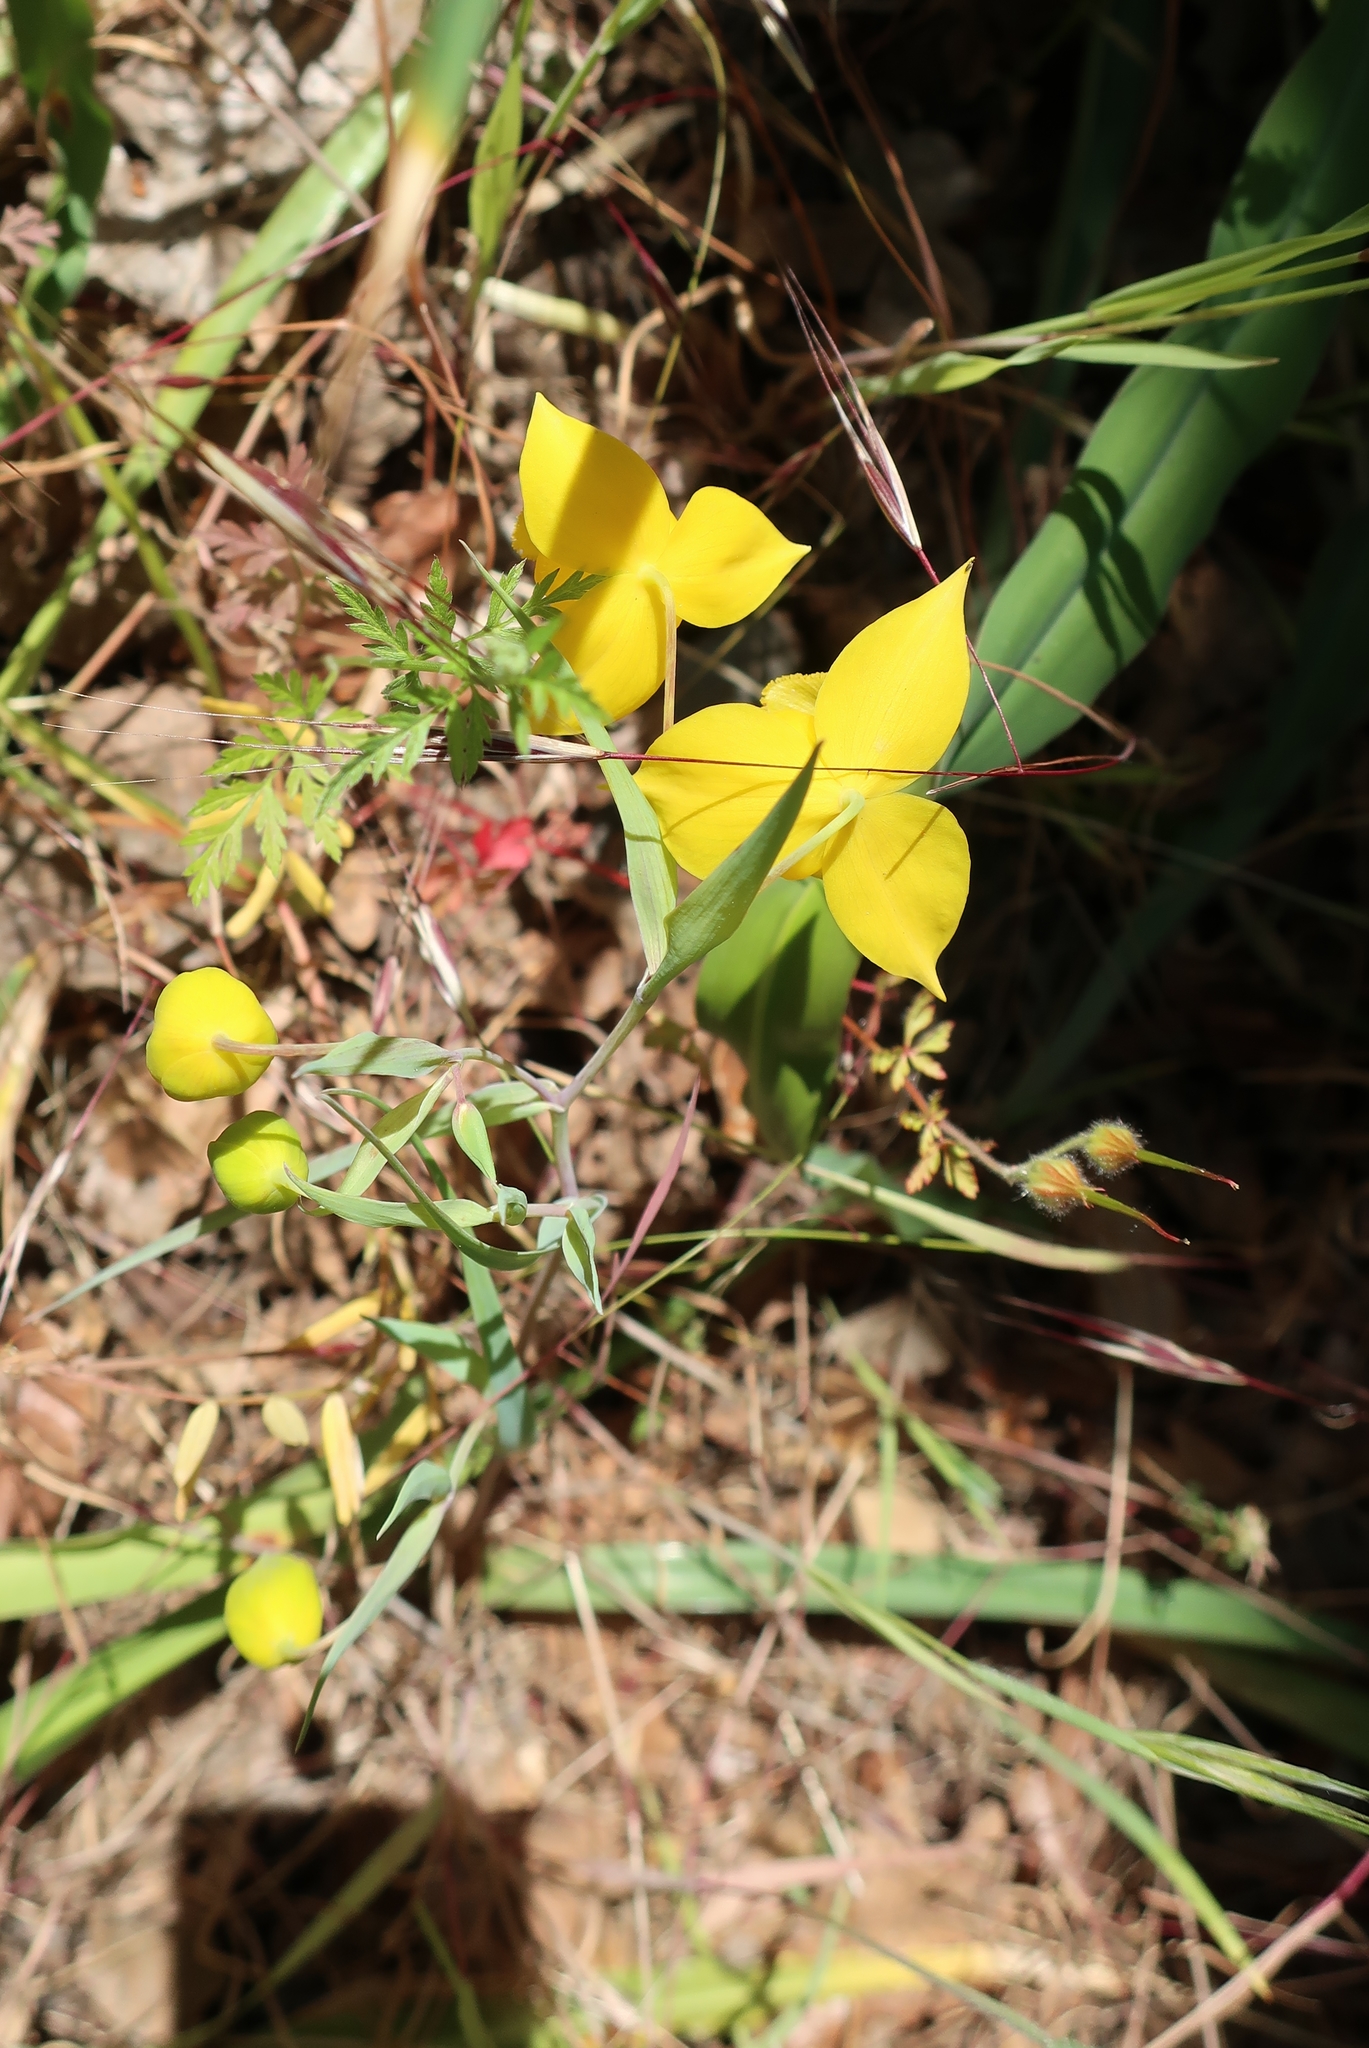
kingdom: Plantae
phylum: Tracheophyta
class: Liliopsida
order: Liliales
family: Liliaceae
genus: Calochortus
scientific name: Calochortus amabilis
